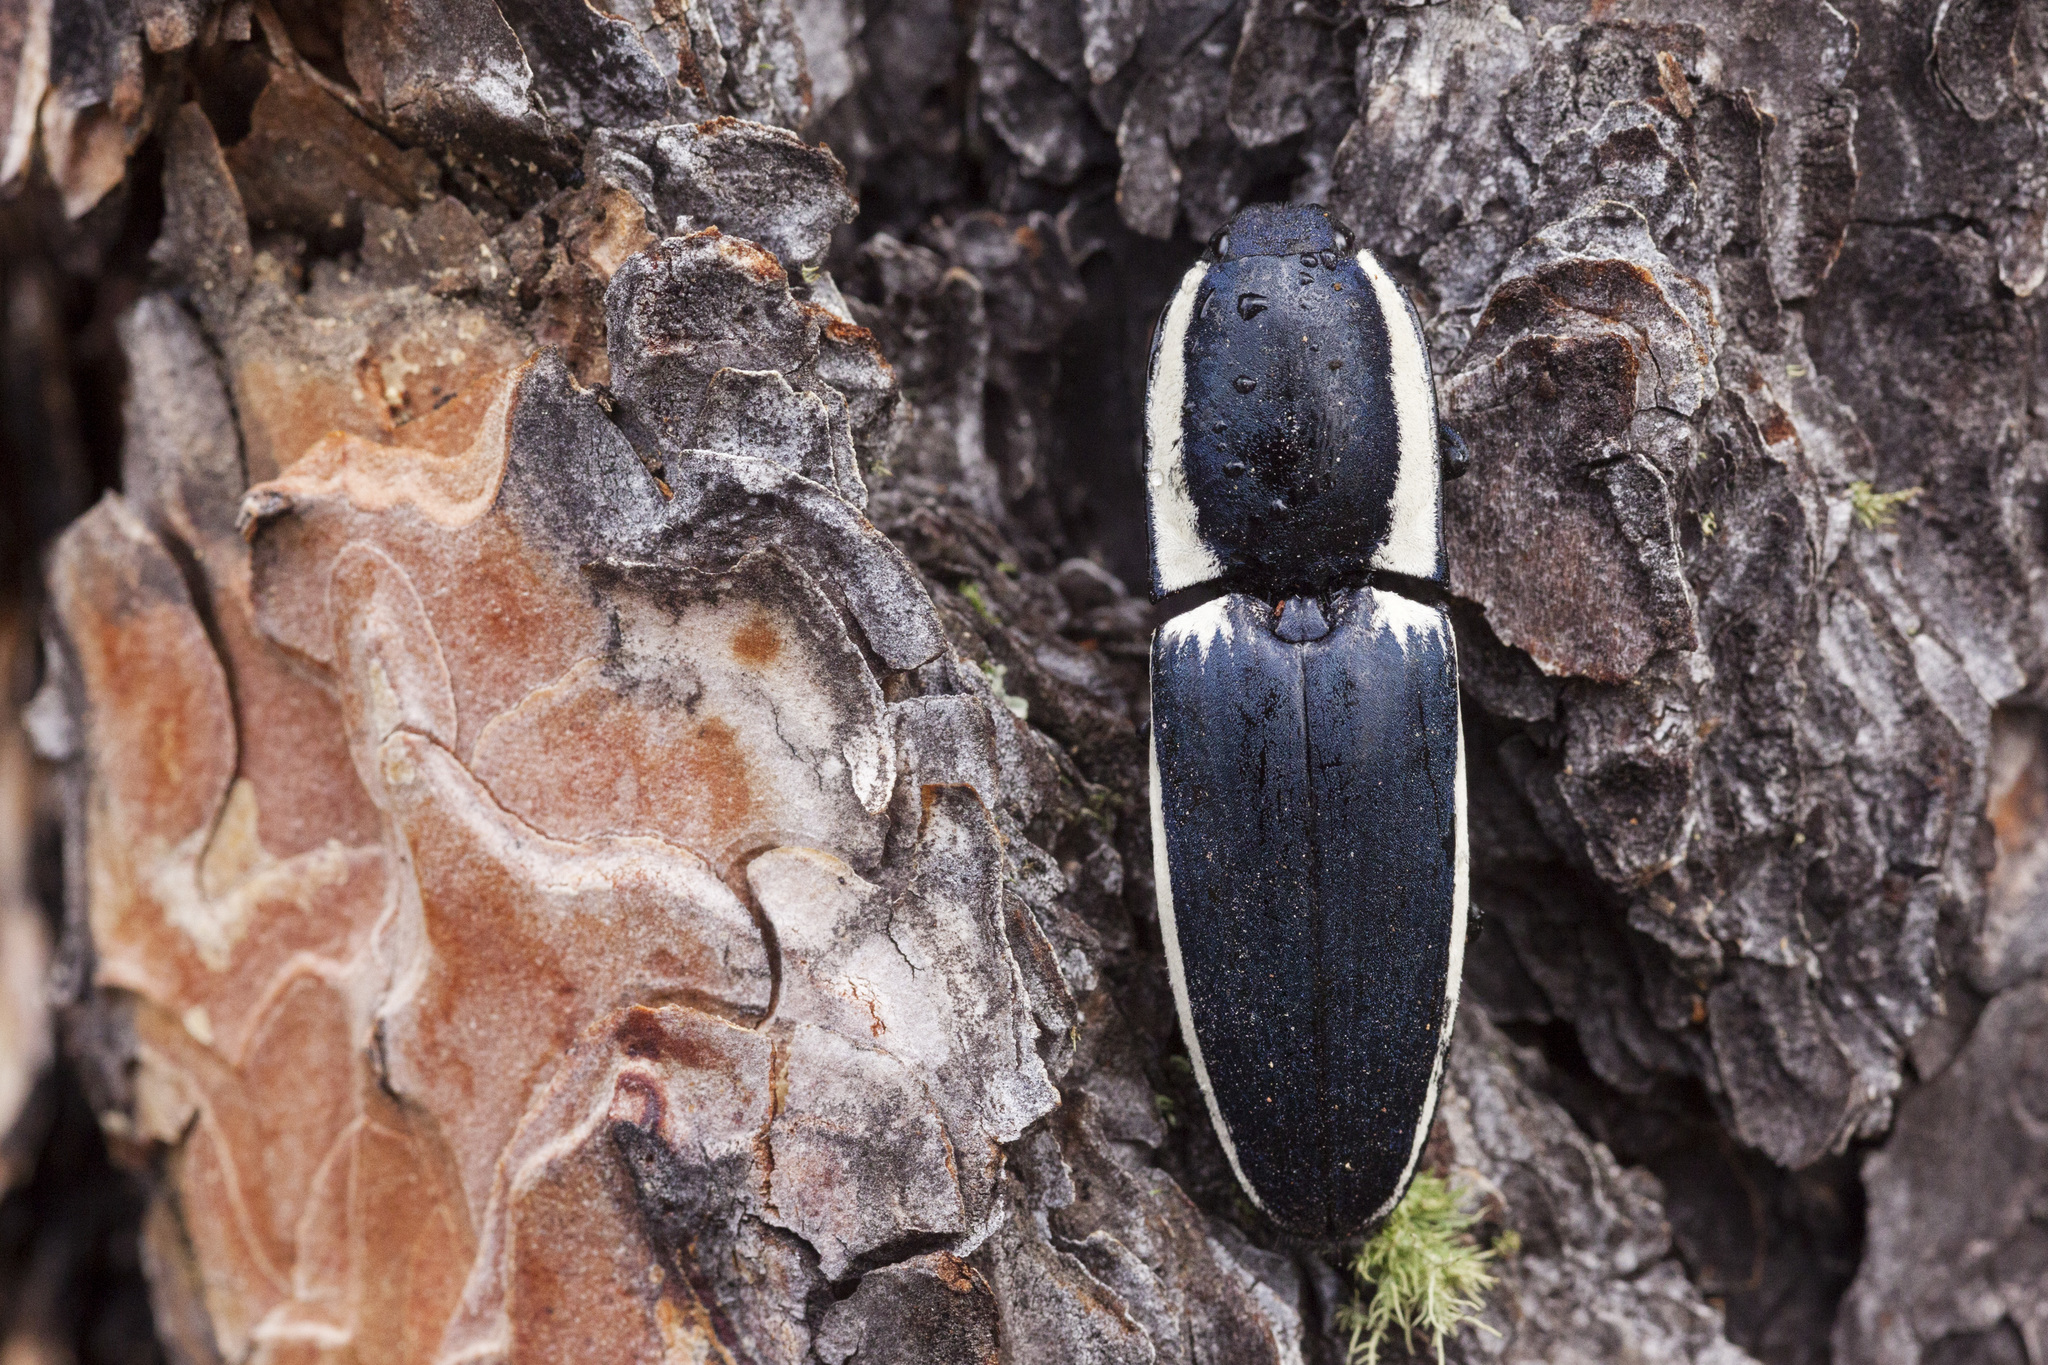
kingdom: Animalia
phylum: Arthropoda
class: Insecta
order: Coleoptera
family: Elateridae
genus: Chalcolepidius
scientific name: Chalcolepidius
